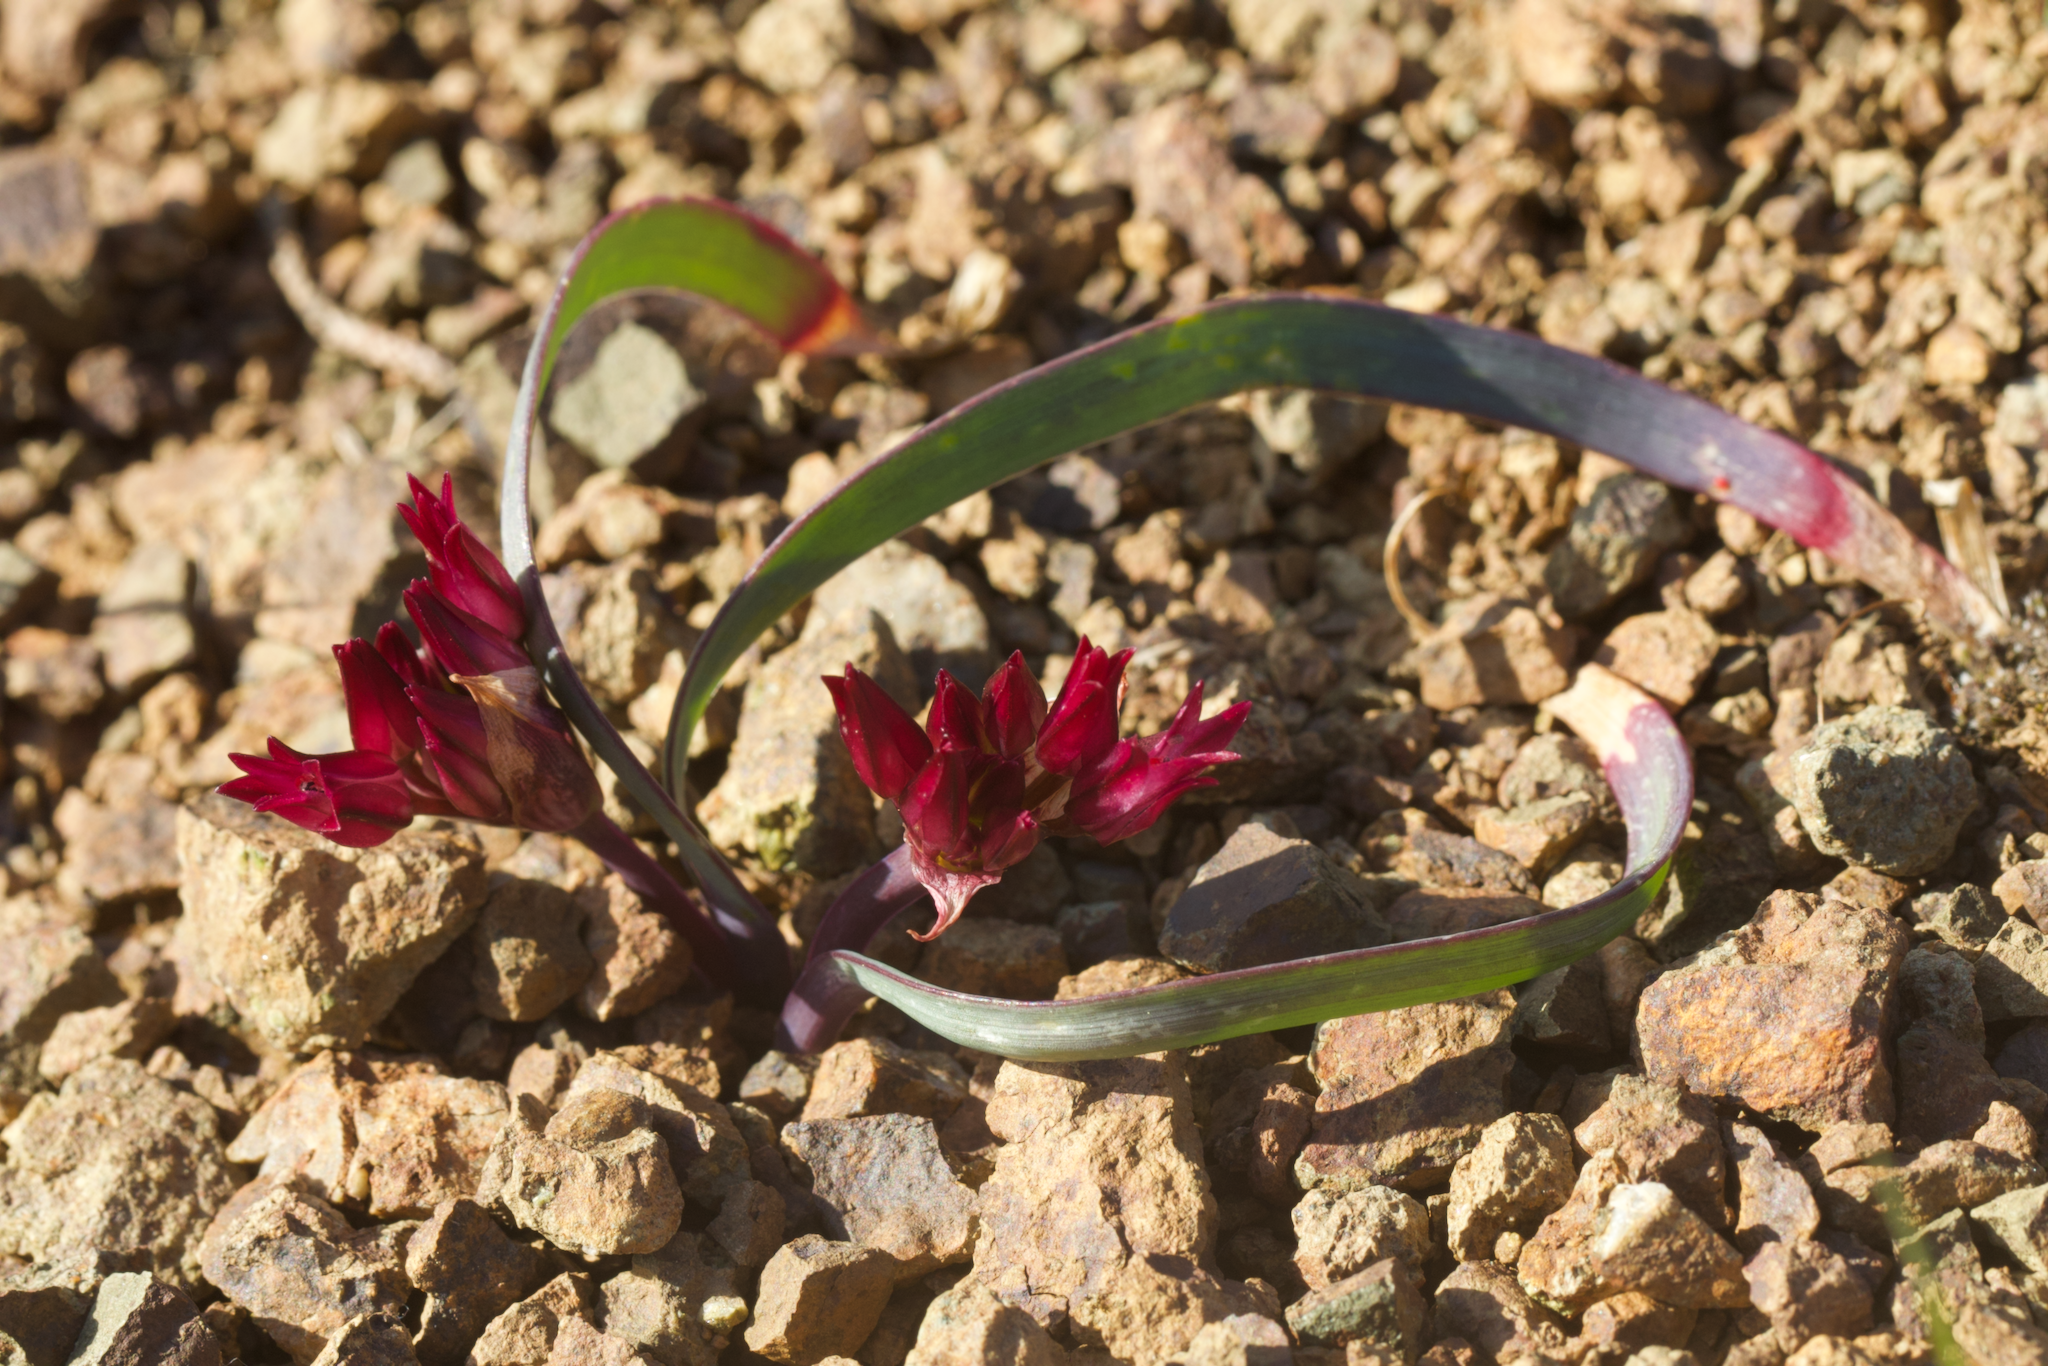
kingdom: Plantae
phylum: Tracheophyta
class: Liliopsida
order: Asparagales
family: Amaryllidaceae
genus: Allium
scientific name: Allium falcifolium
